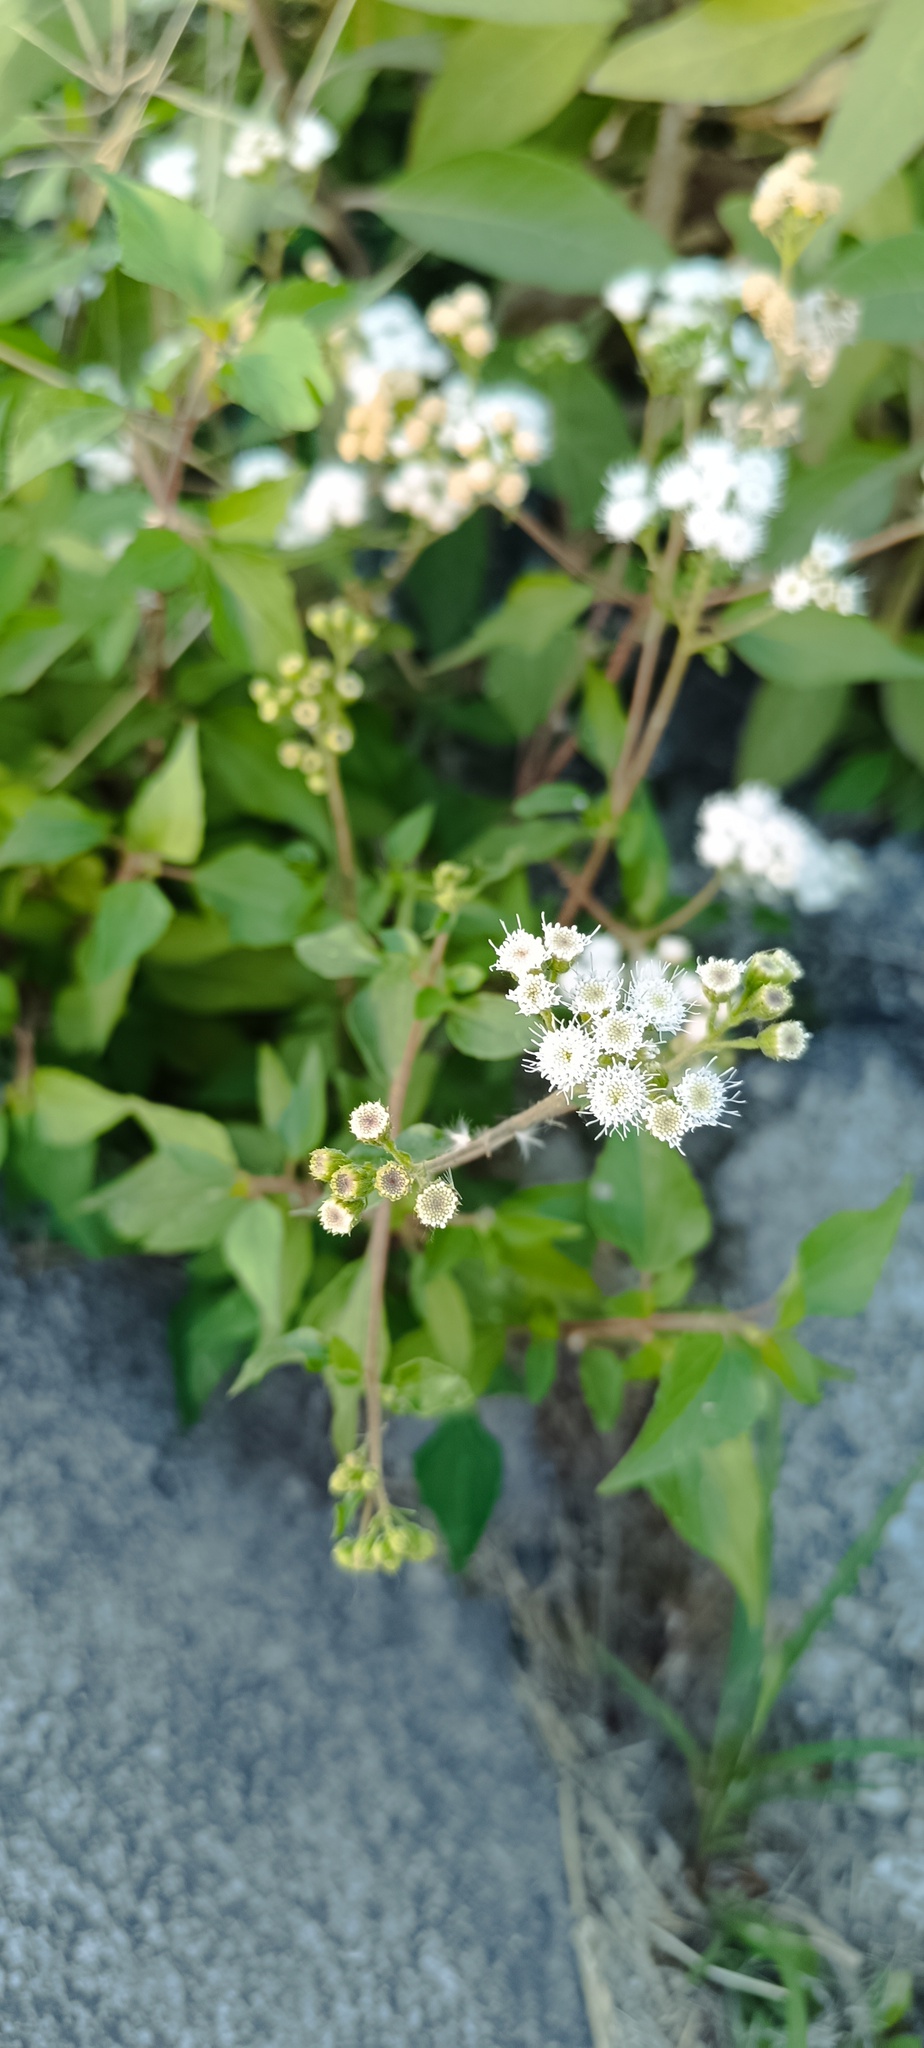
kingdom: Plantae
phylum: Tracheophyta
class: Magnoliopsida
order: Asterales
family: Asteraceae
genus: Chromolaena
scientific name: Chromolaena odorata
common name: Siamweed
